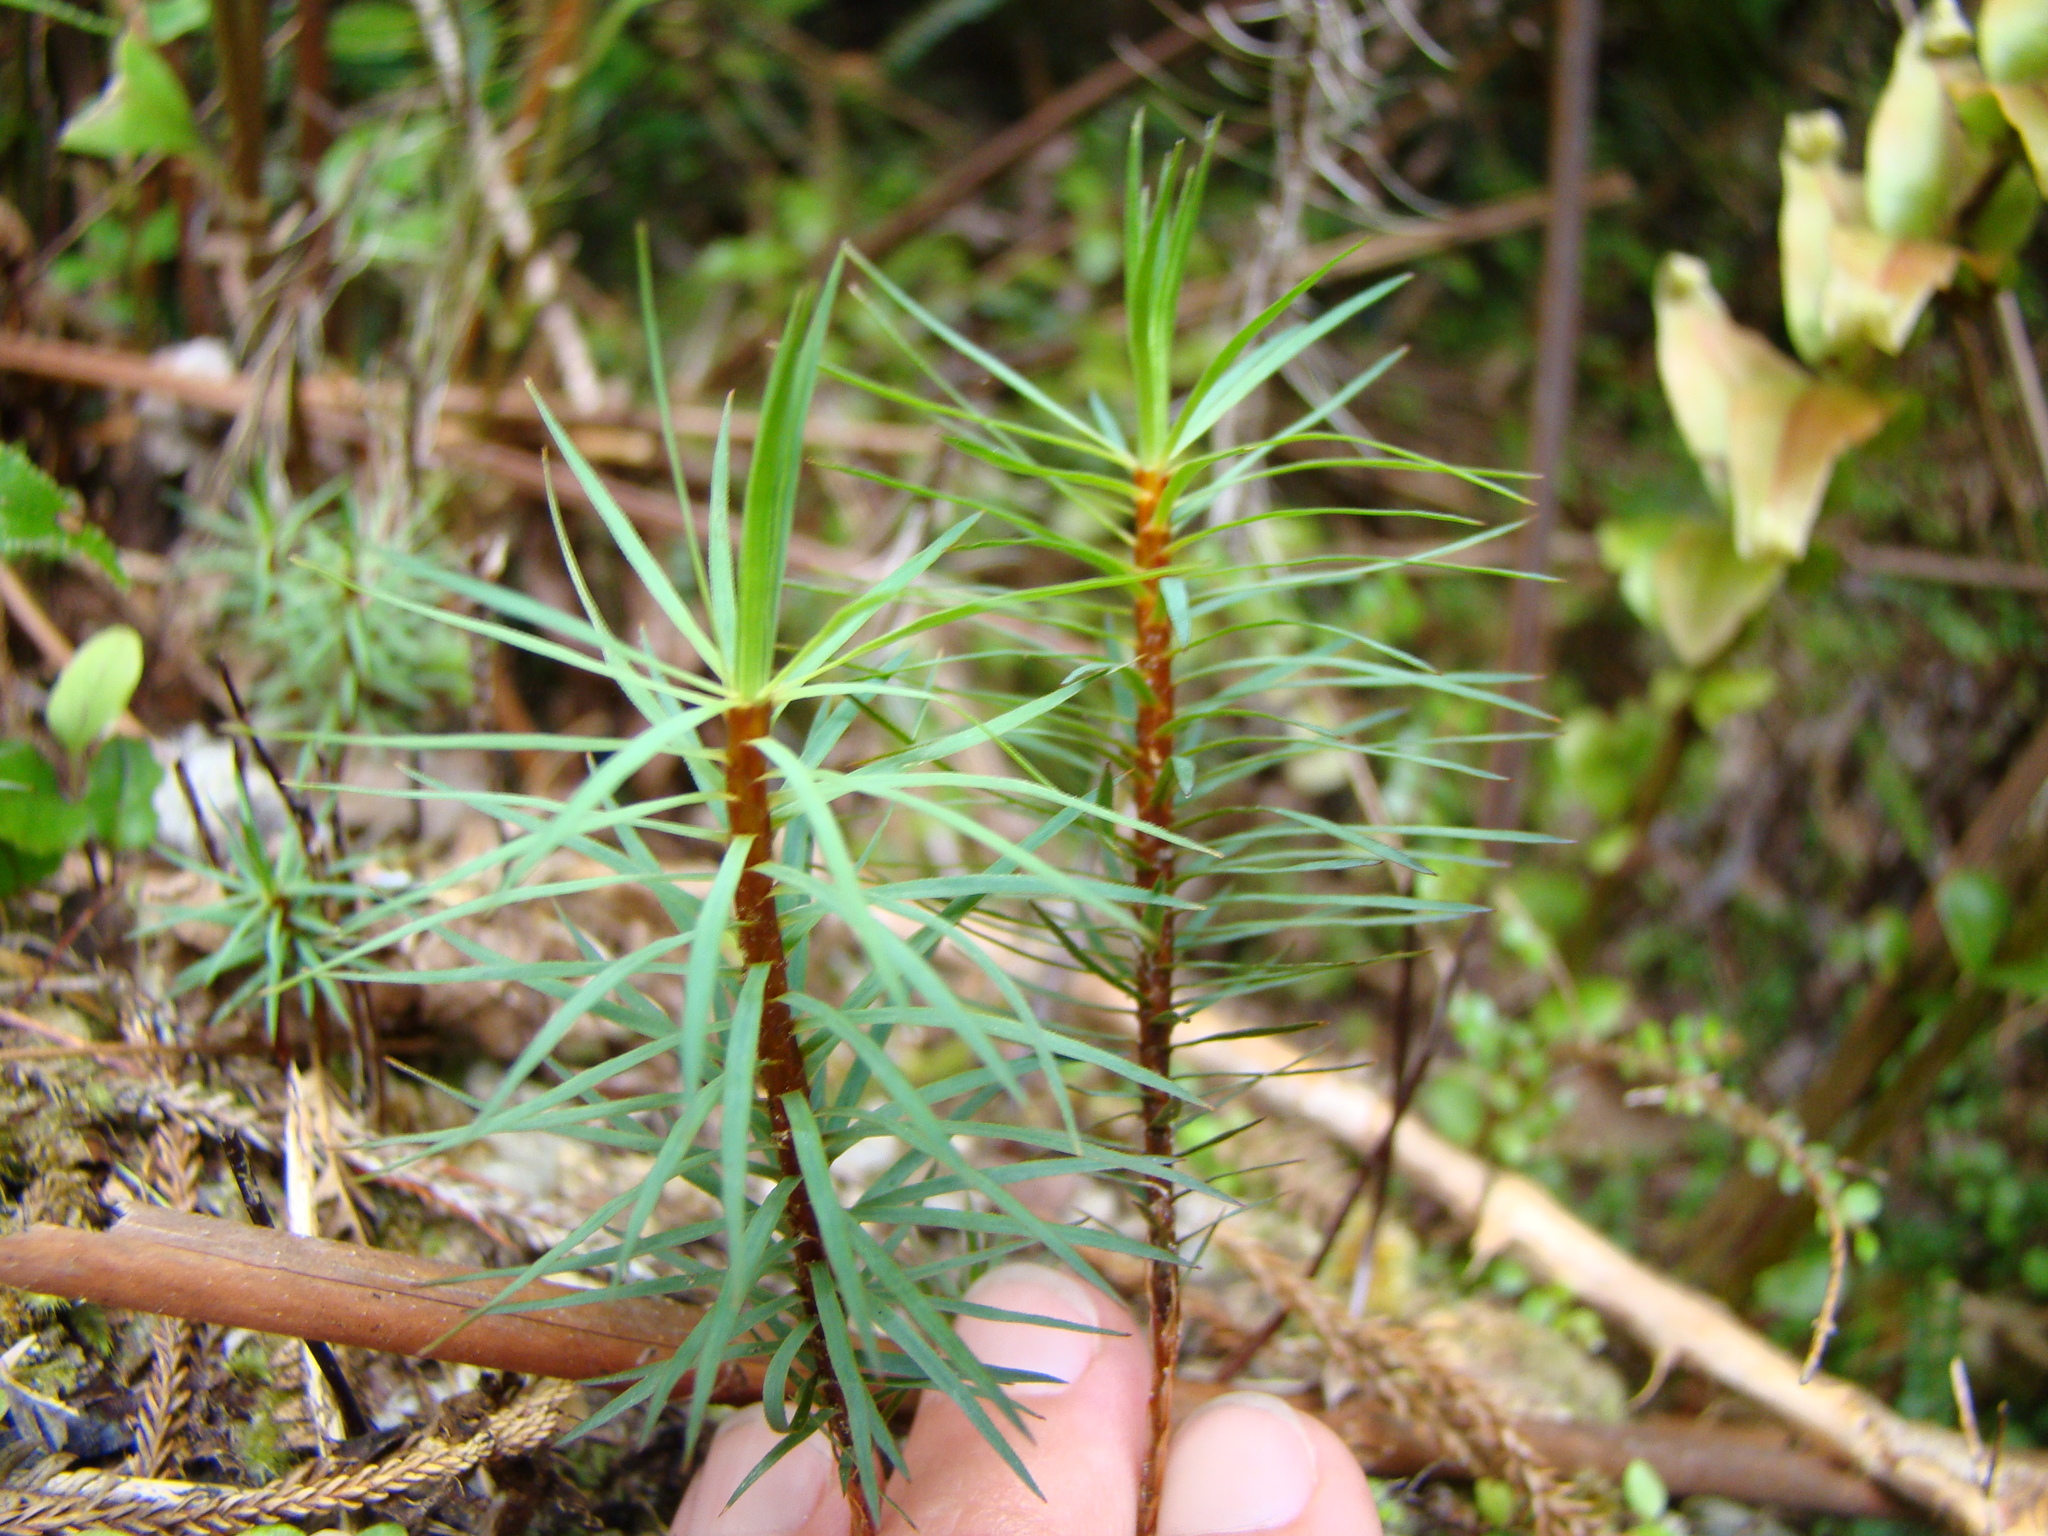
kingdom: Plantae
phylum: Bryophyta
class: Polytrichopsida
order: Polytrichales
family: Polytrichaceae
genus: Dawsonia
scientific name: Dawsonia superba
